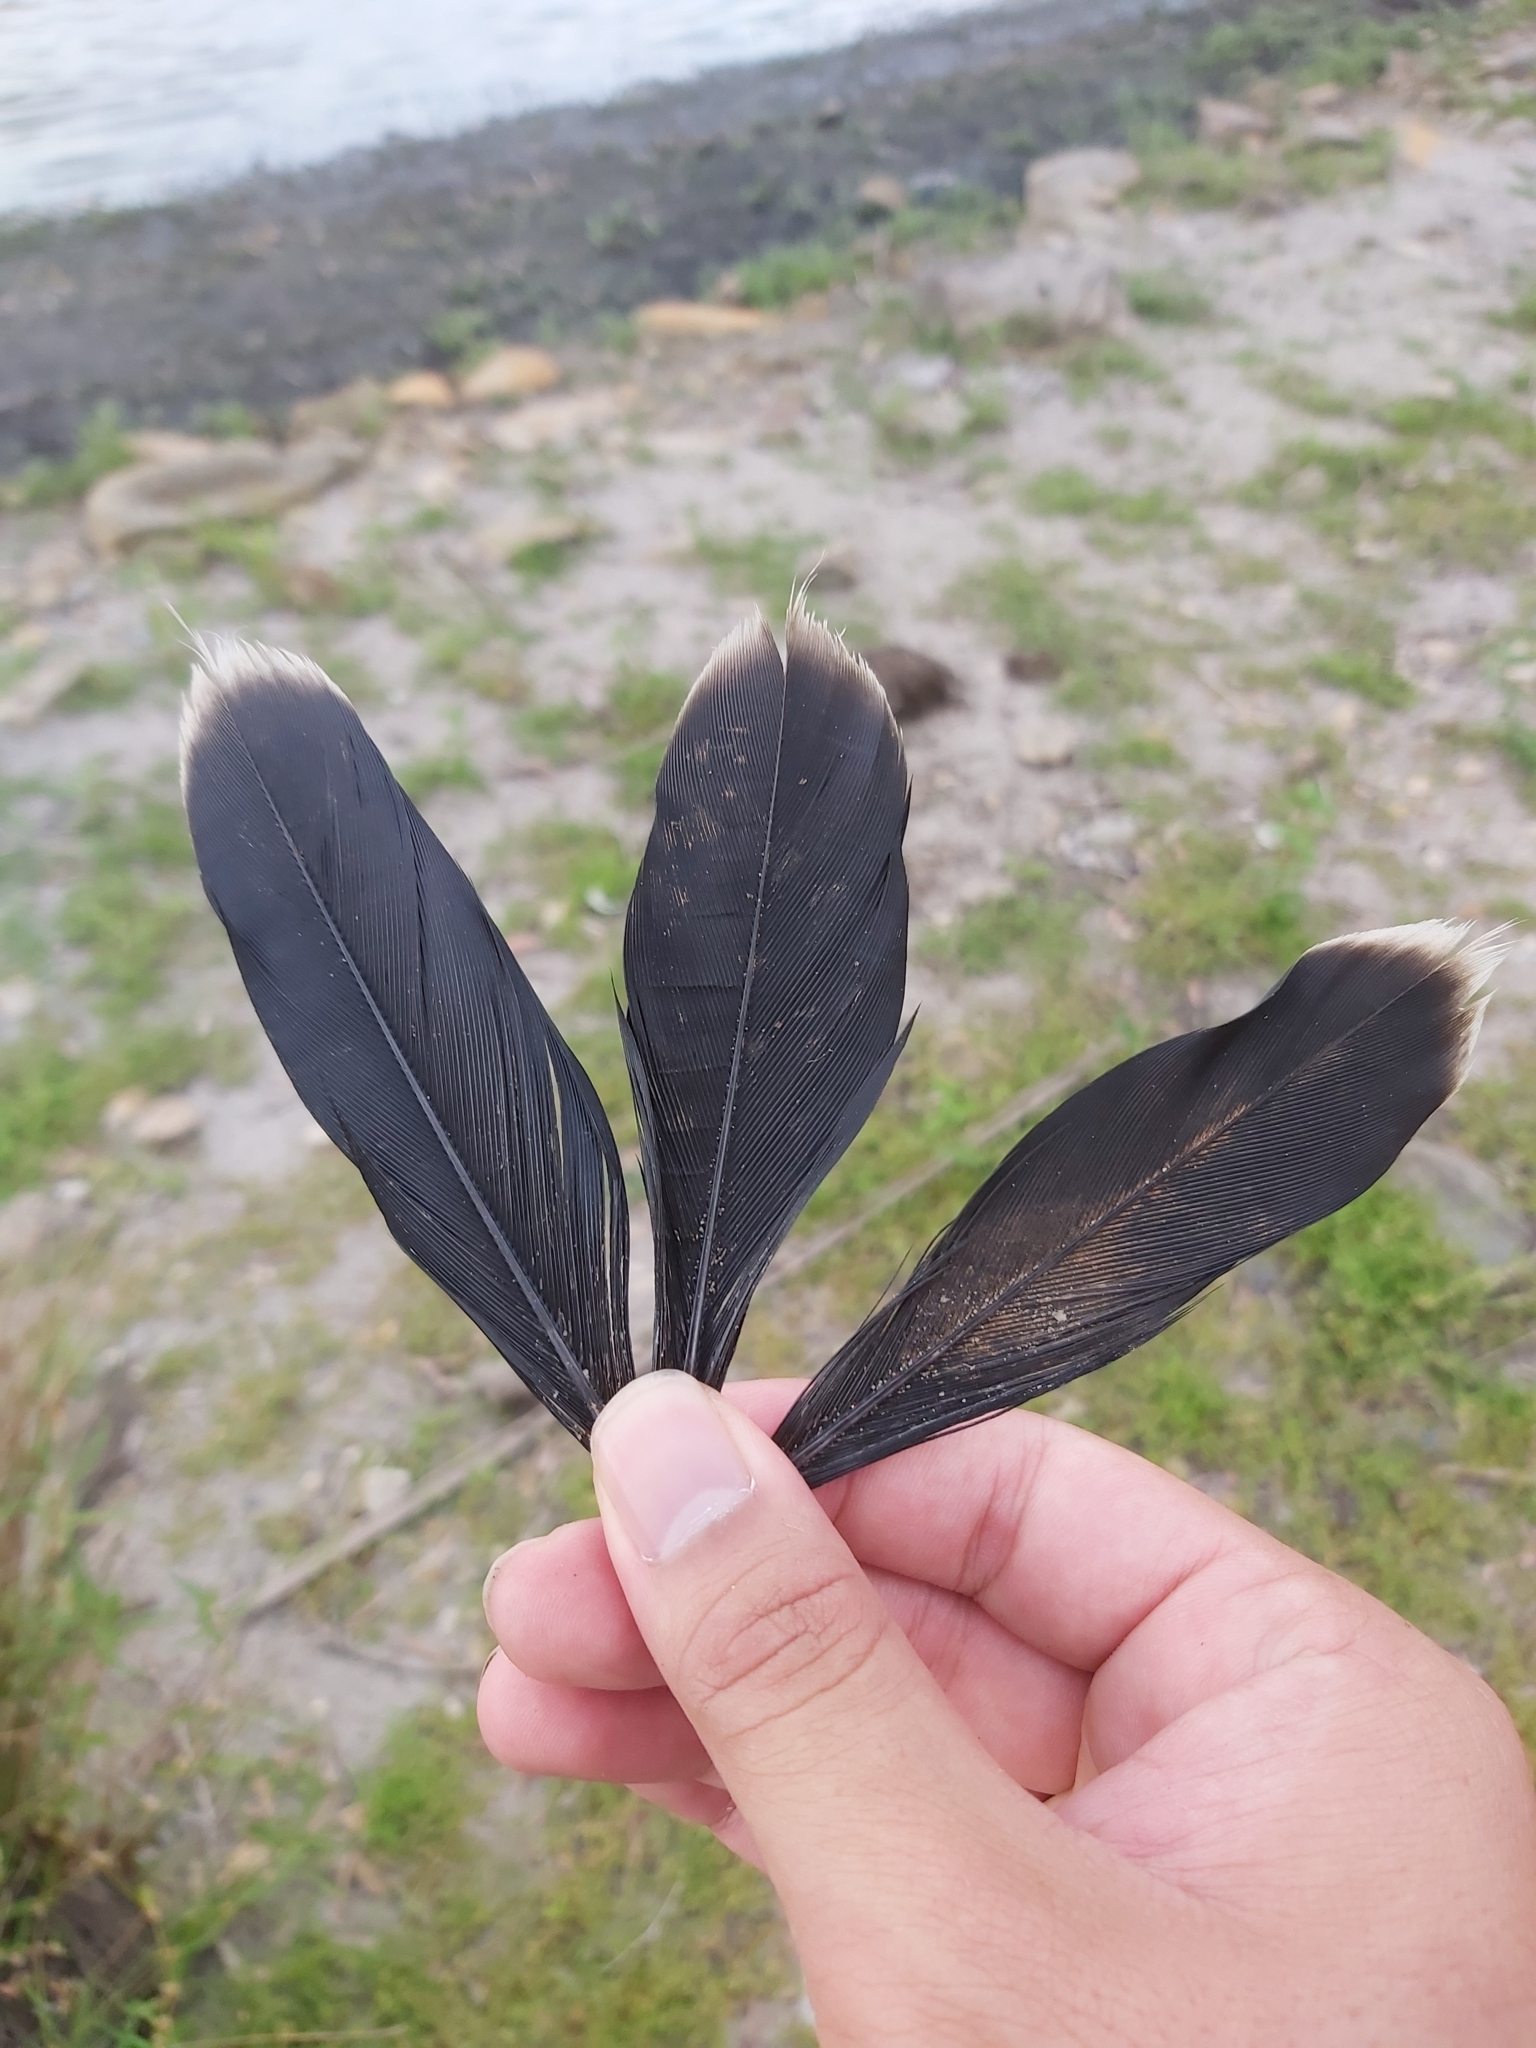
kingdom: Animalia
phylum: Chordata
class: Aves
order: Suliformes
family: Anhingidae
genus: Anhinga
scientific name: Anhinga novaehollandiae
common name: Australasian darter
